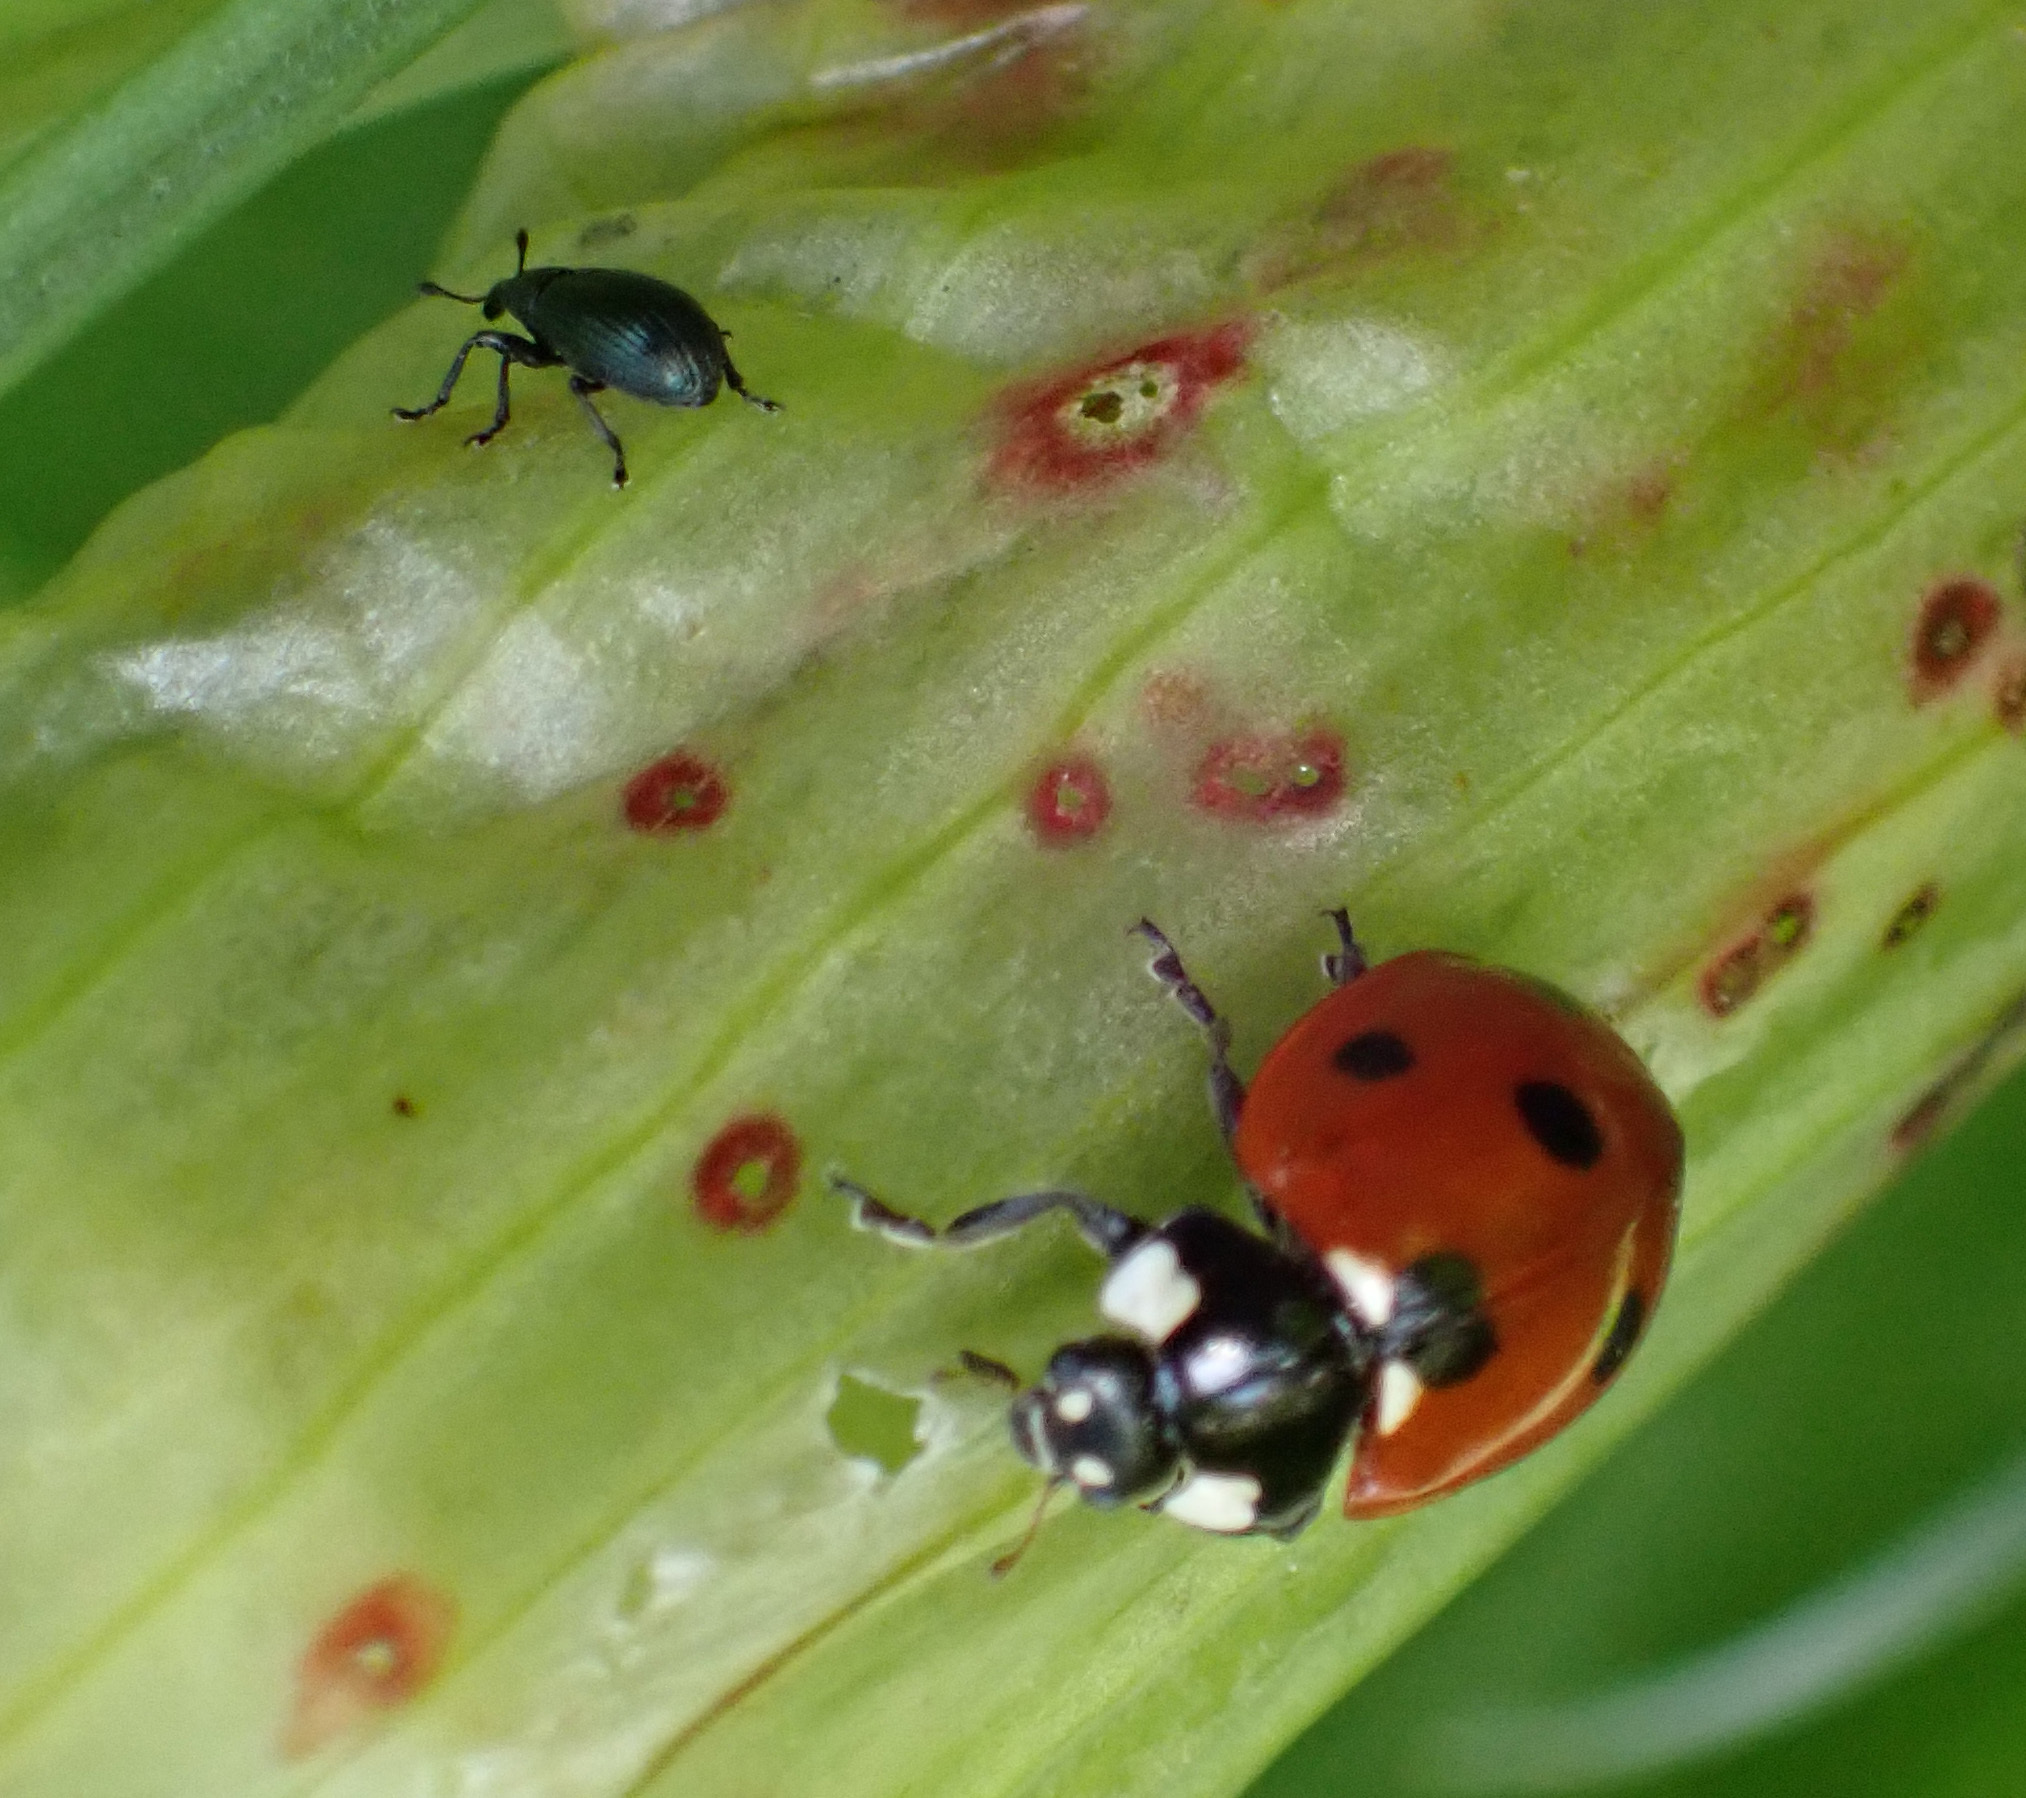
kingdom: Animalia
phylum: Arthropoda
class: Insecta
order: Coleoptera
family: Coccinellidae
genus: Coccinella
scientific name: Coccinella septempunctata
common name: Sevenspotted lady beetle
